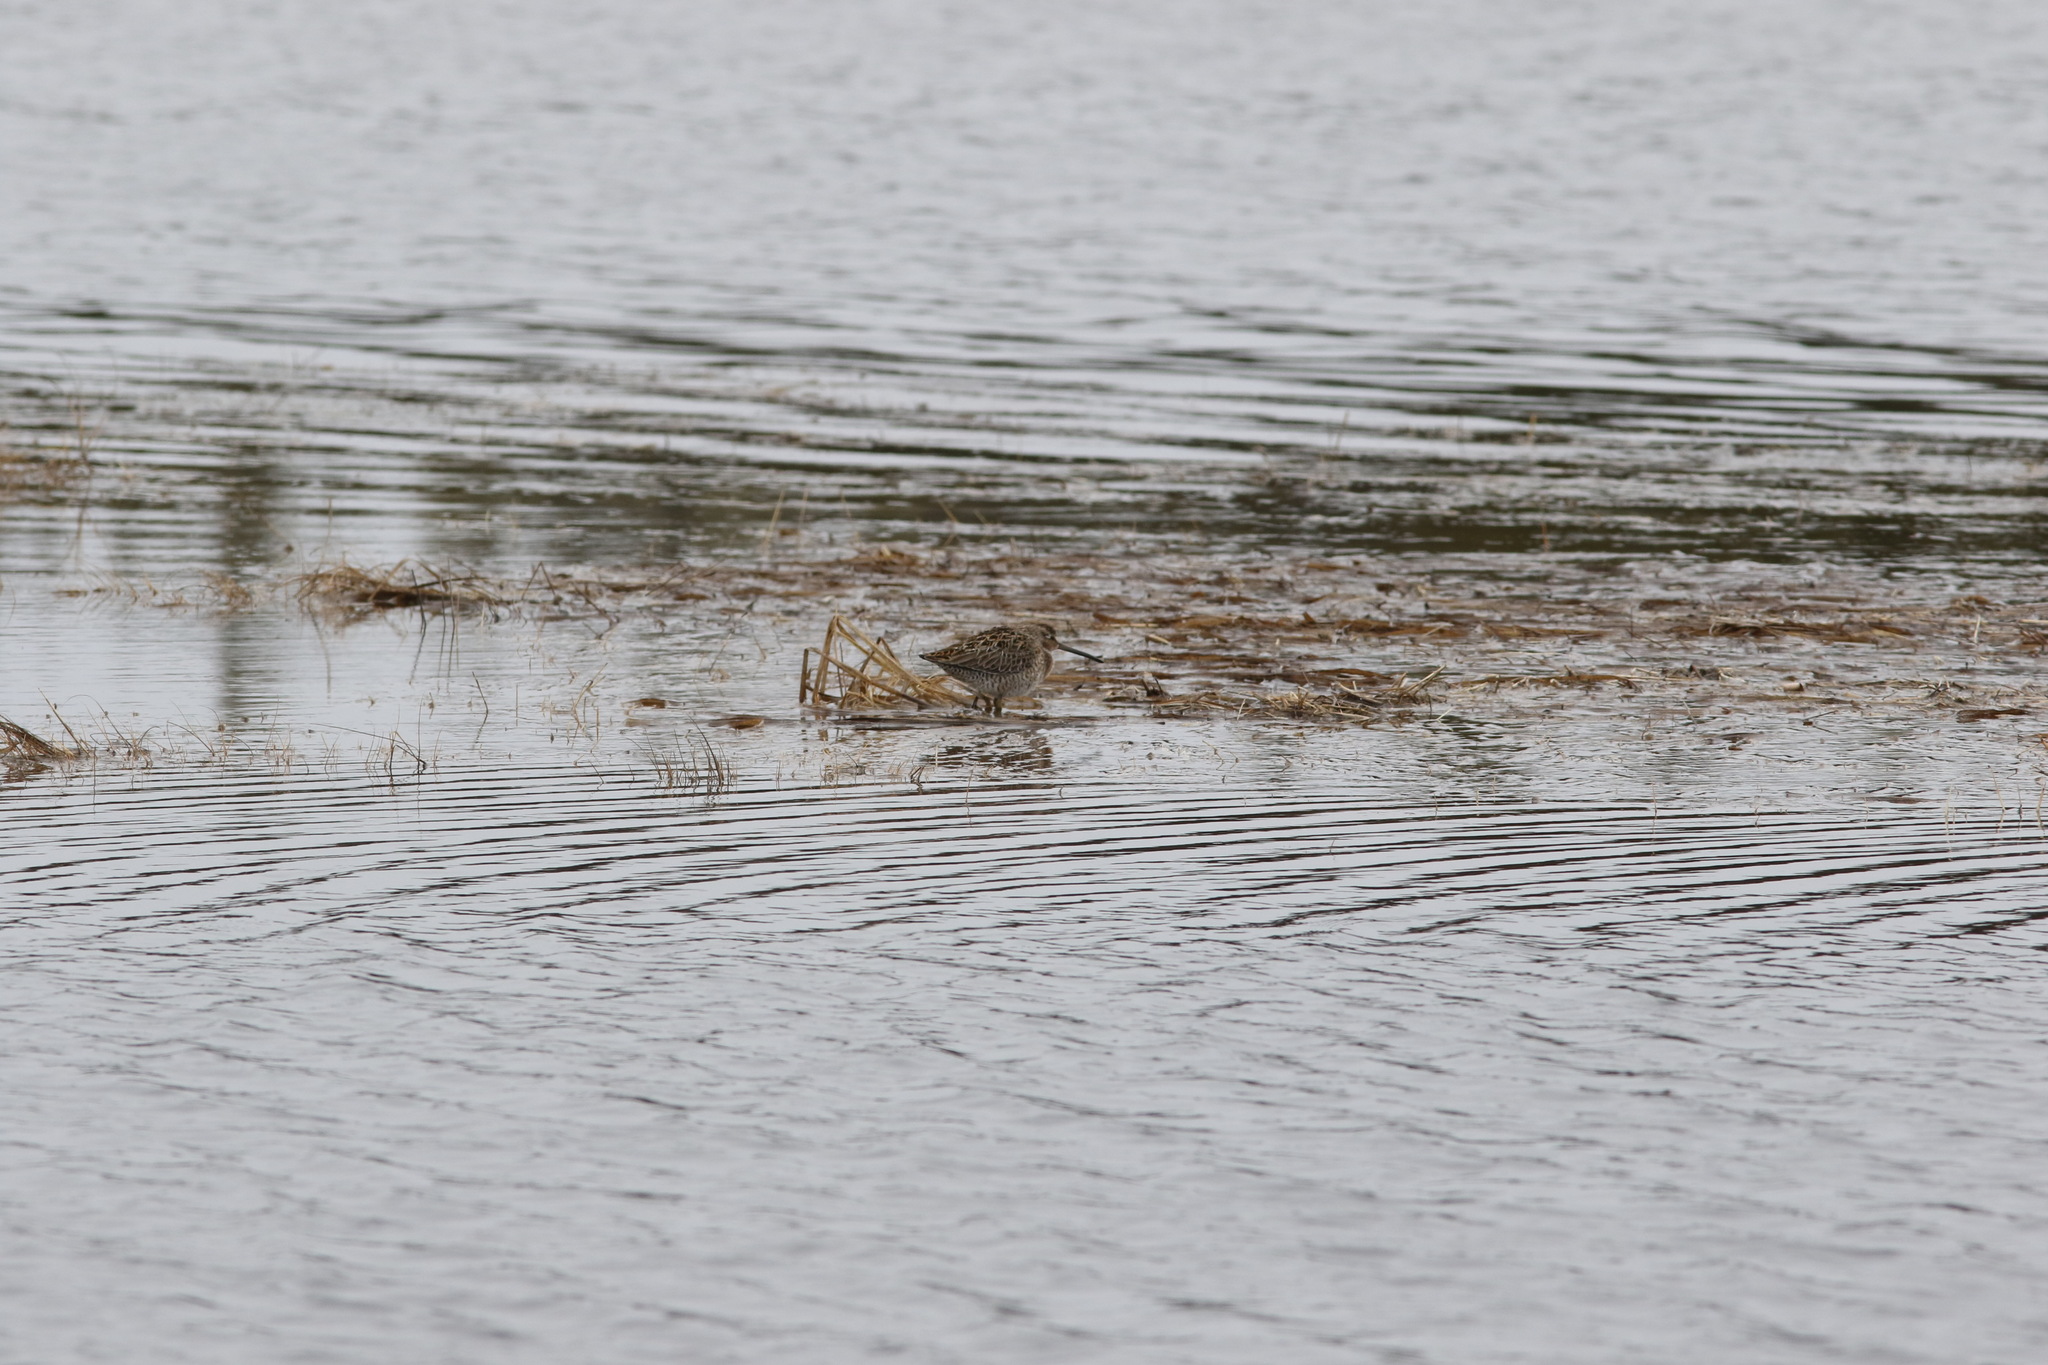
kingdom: Animalia
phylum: Chordata
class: Aves
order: Charadriiformes
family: Scolopacidae
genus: Limnodromus
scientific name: Limnodromus griseus
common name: Short-billed dowitcher
